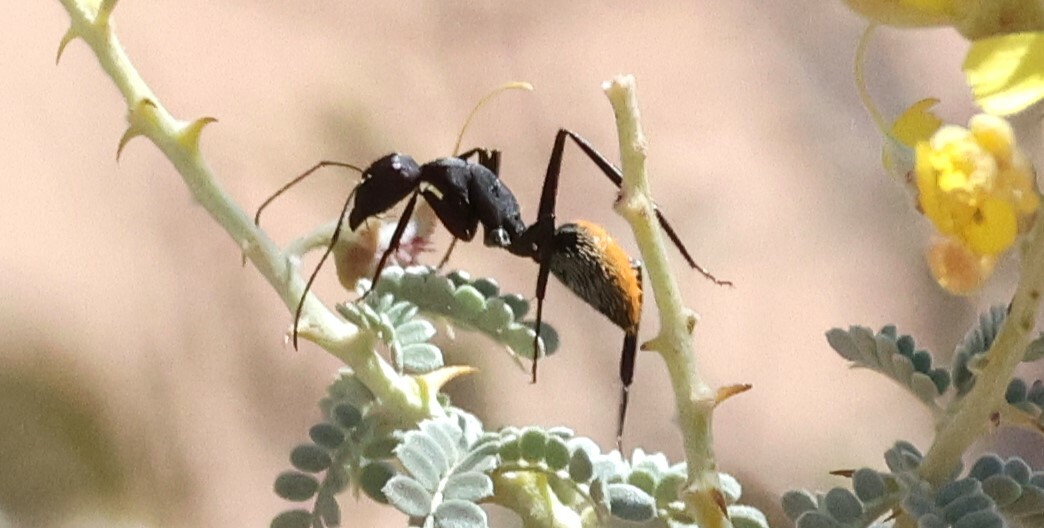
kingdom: Animalia
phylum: Arthropoda
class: Insecta
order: Hymenoptera
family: Formicidae
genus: Camponotus
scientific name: Camponotus fulvopilosus
